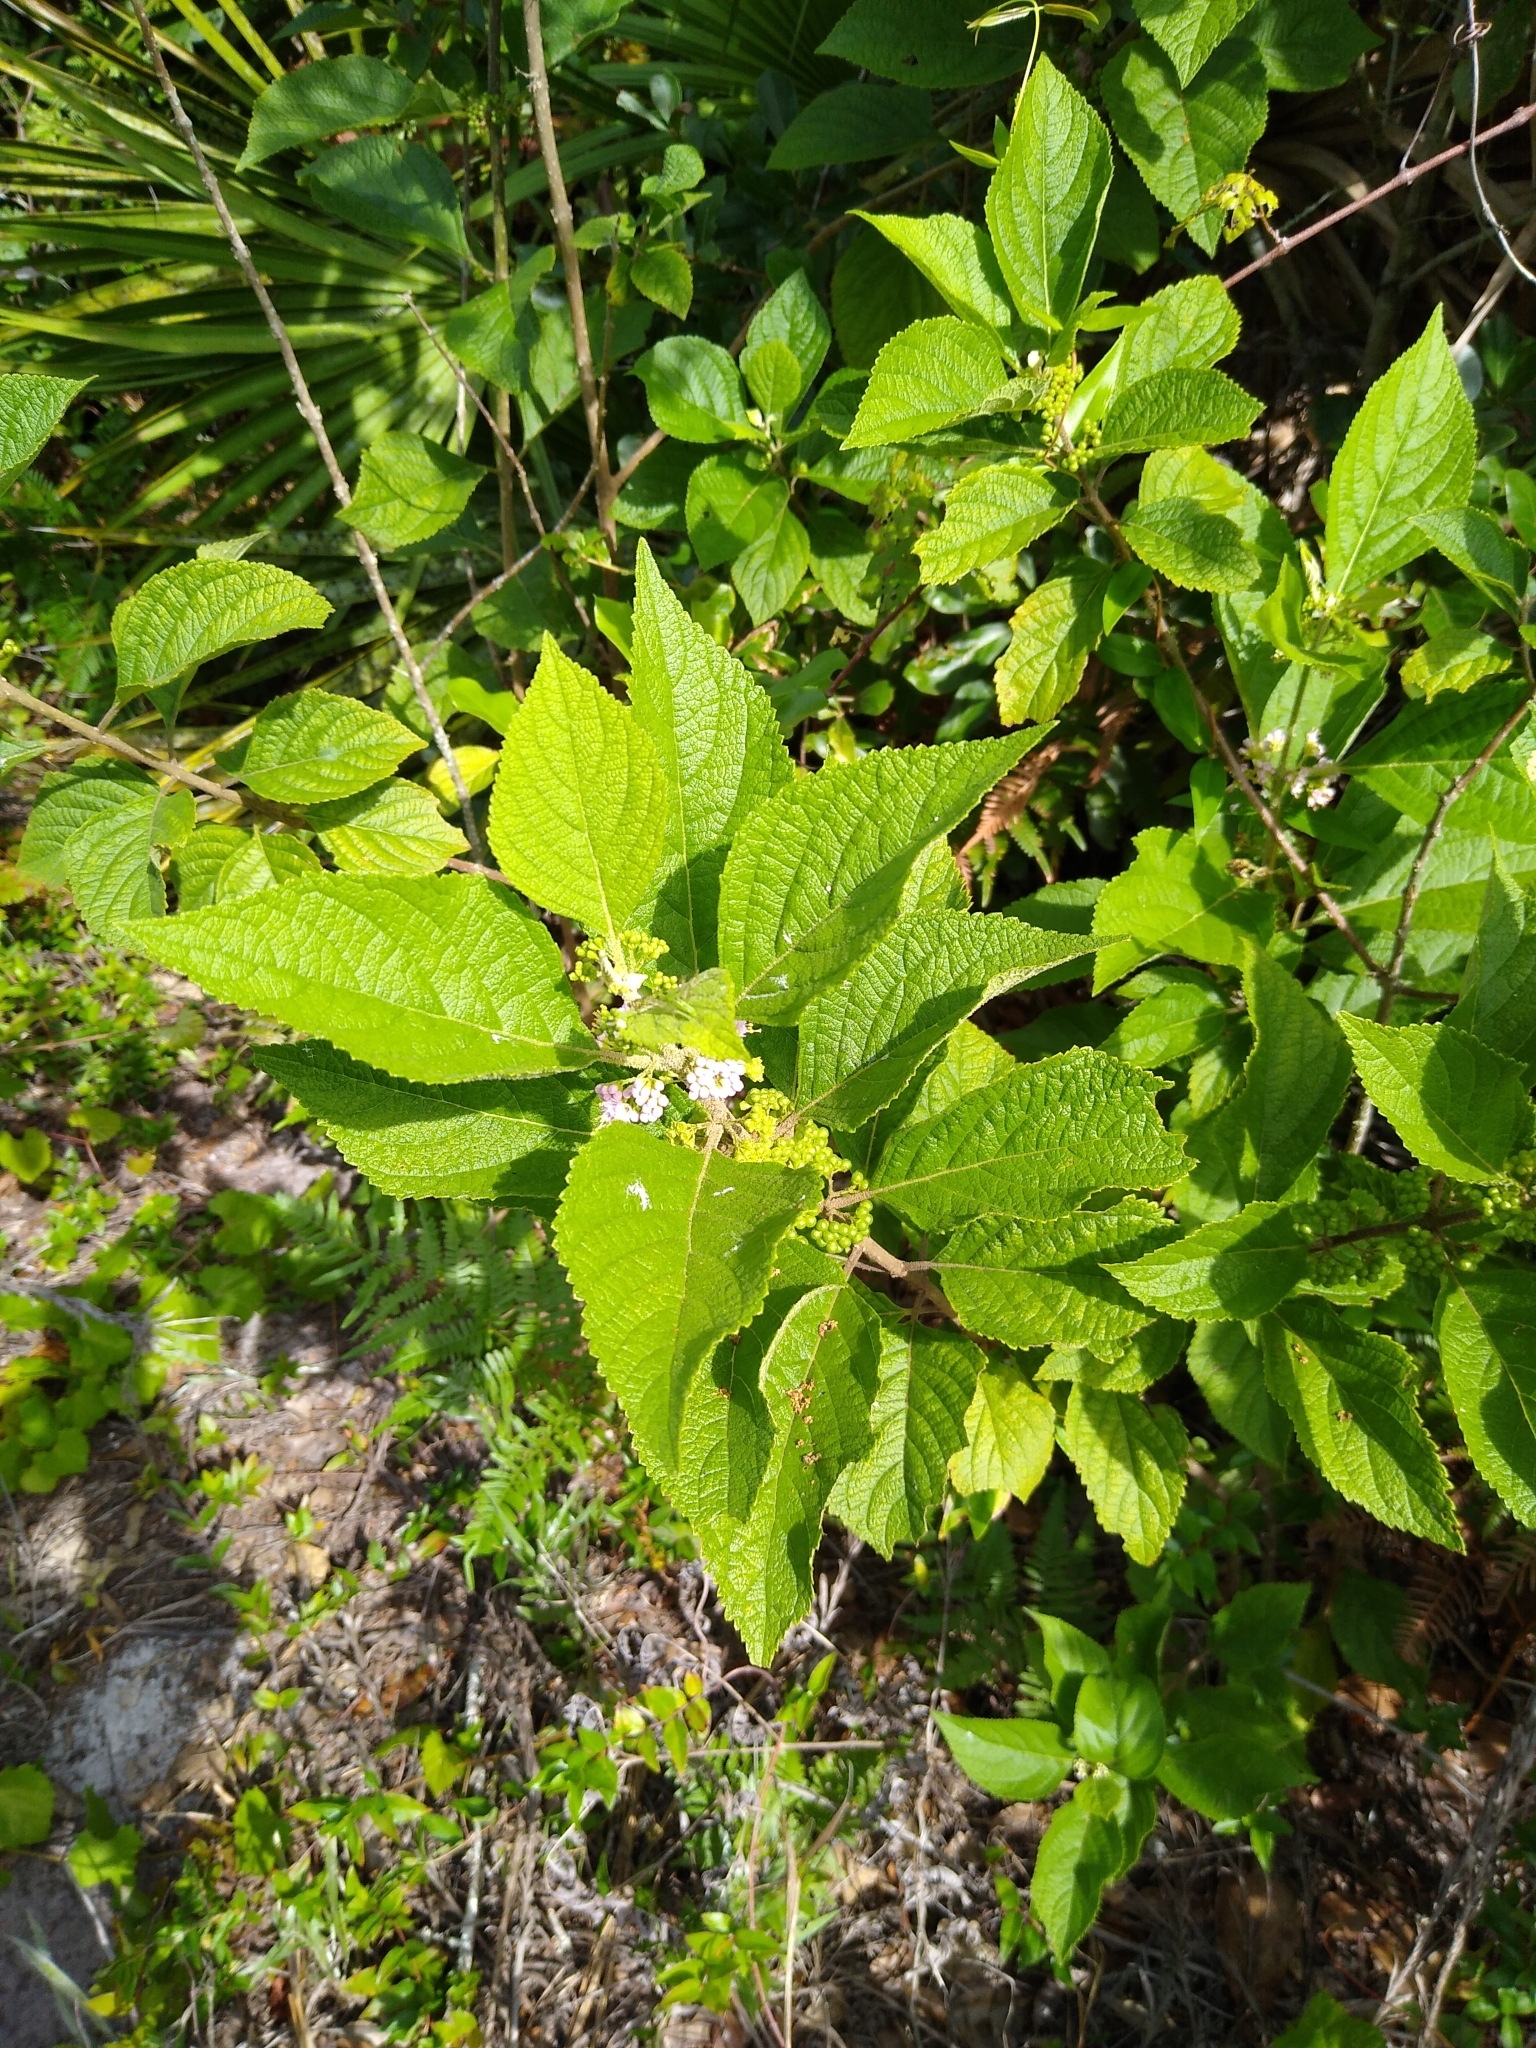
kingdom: Plantae
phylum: Tracheophyta
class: Magnoliopsida
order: Lamiales
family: Lamiaceae
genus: Callicarpa
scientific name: Callicarpa americana
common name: American beautyberry
